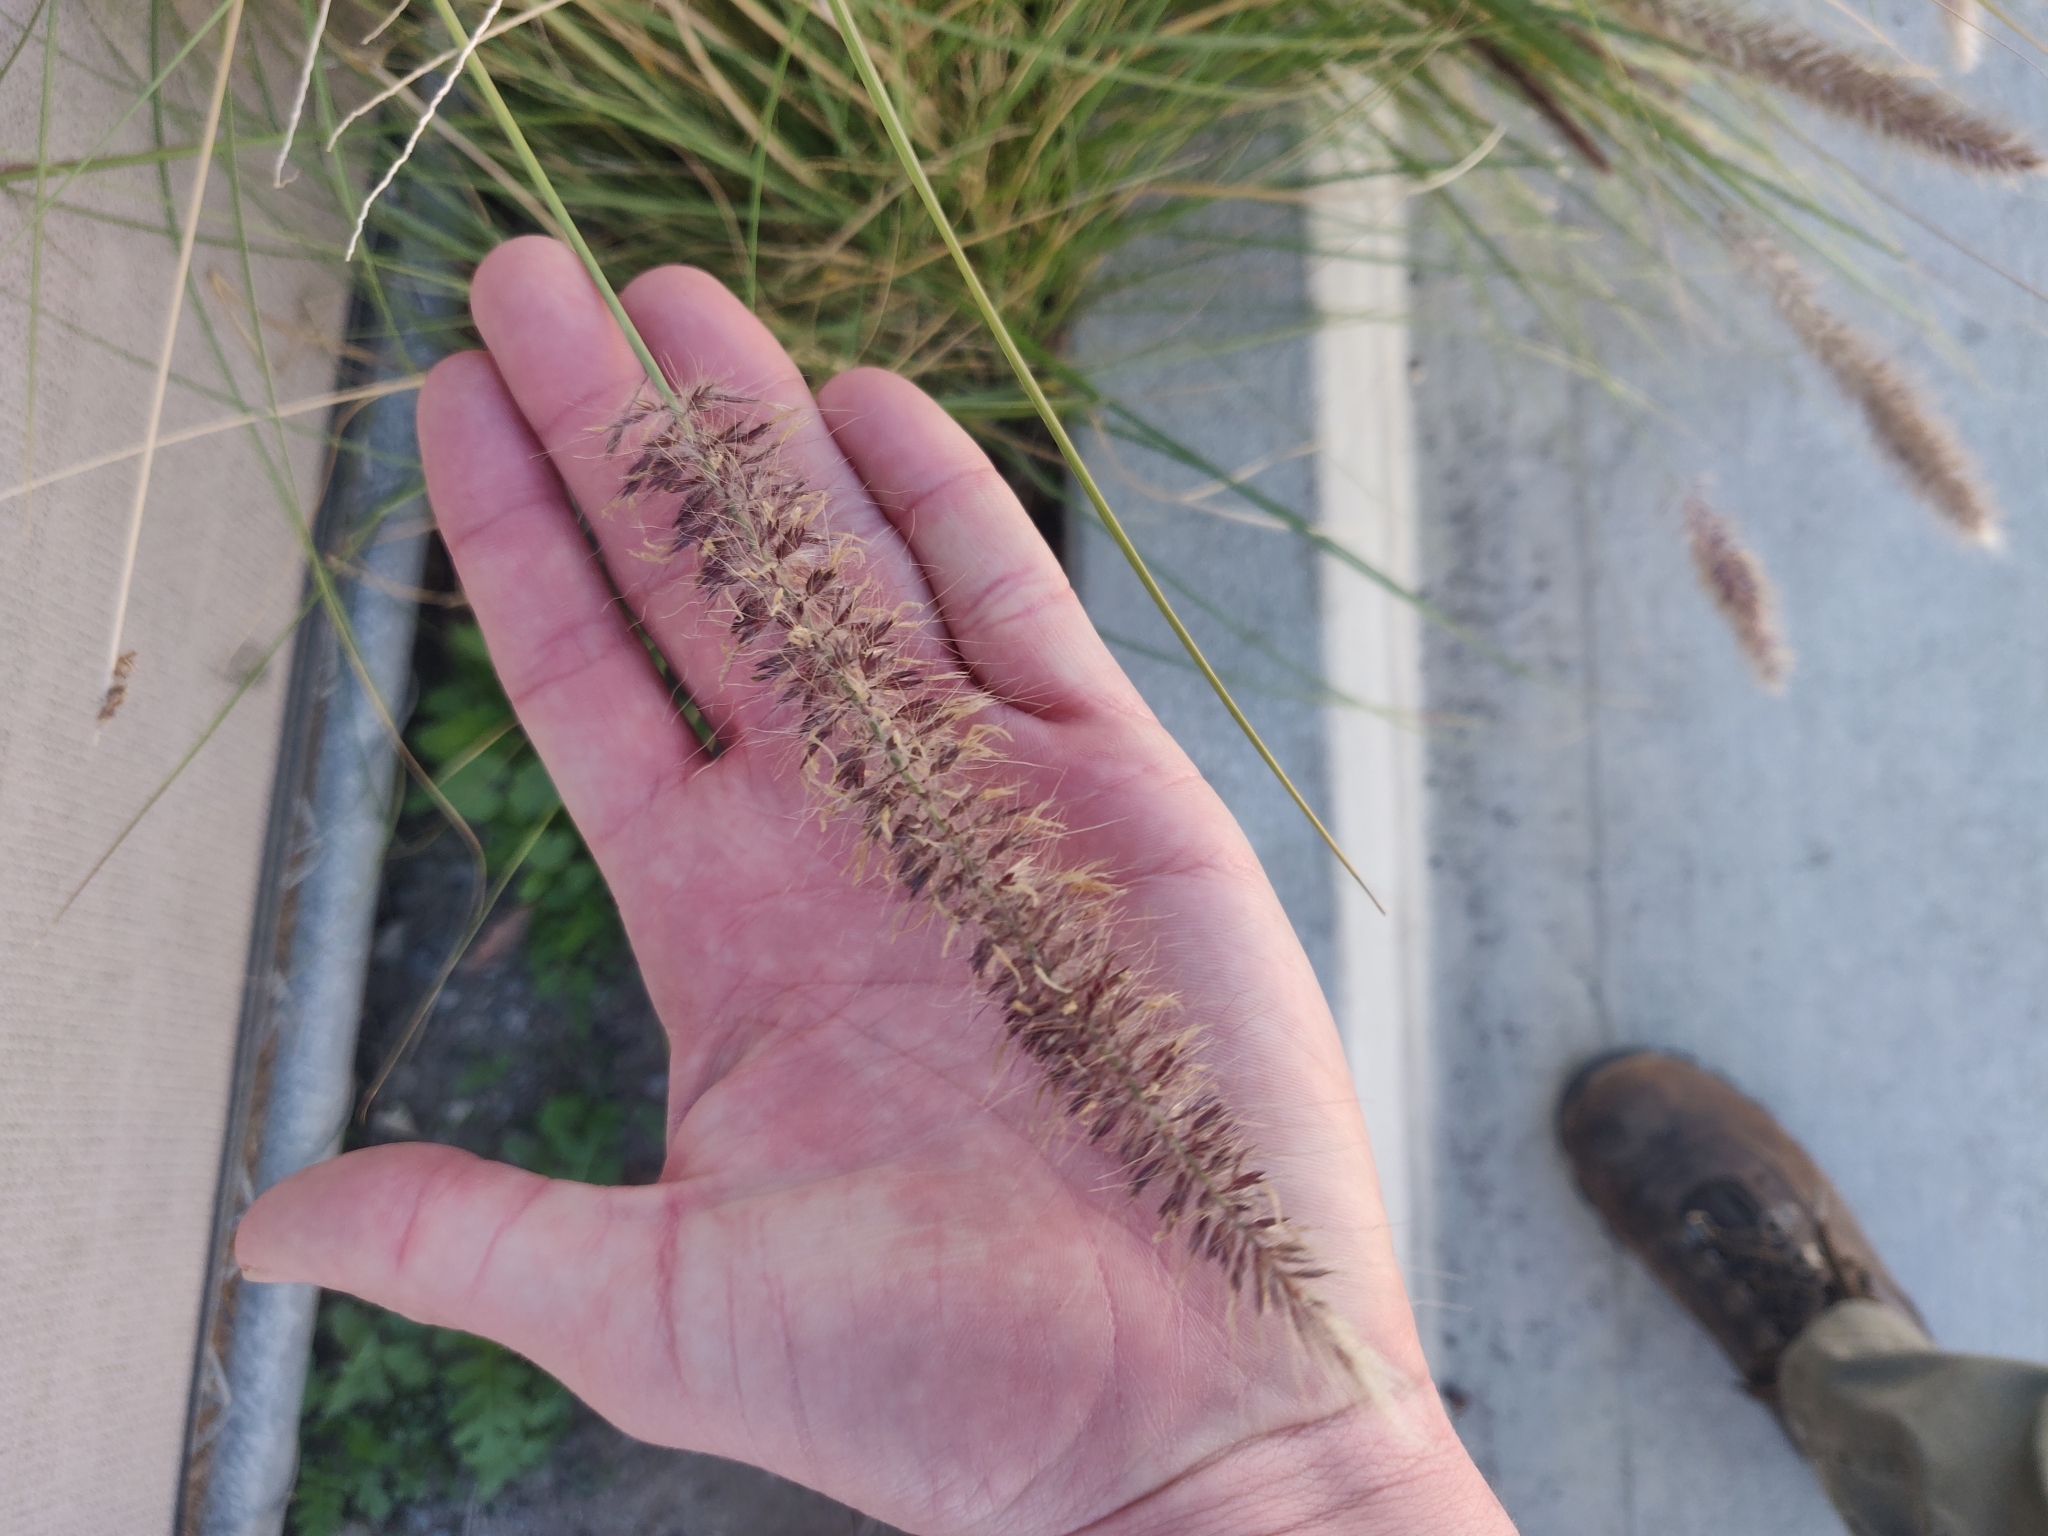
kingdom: Plantae
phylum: Tracheophyta
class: Liliopsida
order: Poales
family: Poaceae
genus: Cenchrus
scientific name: Cenchrus setaceus
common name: Crimson fountaingrass
